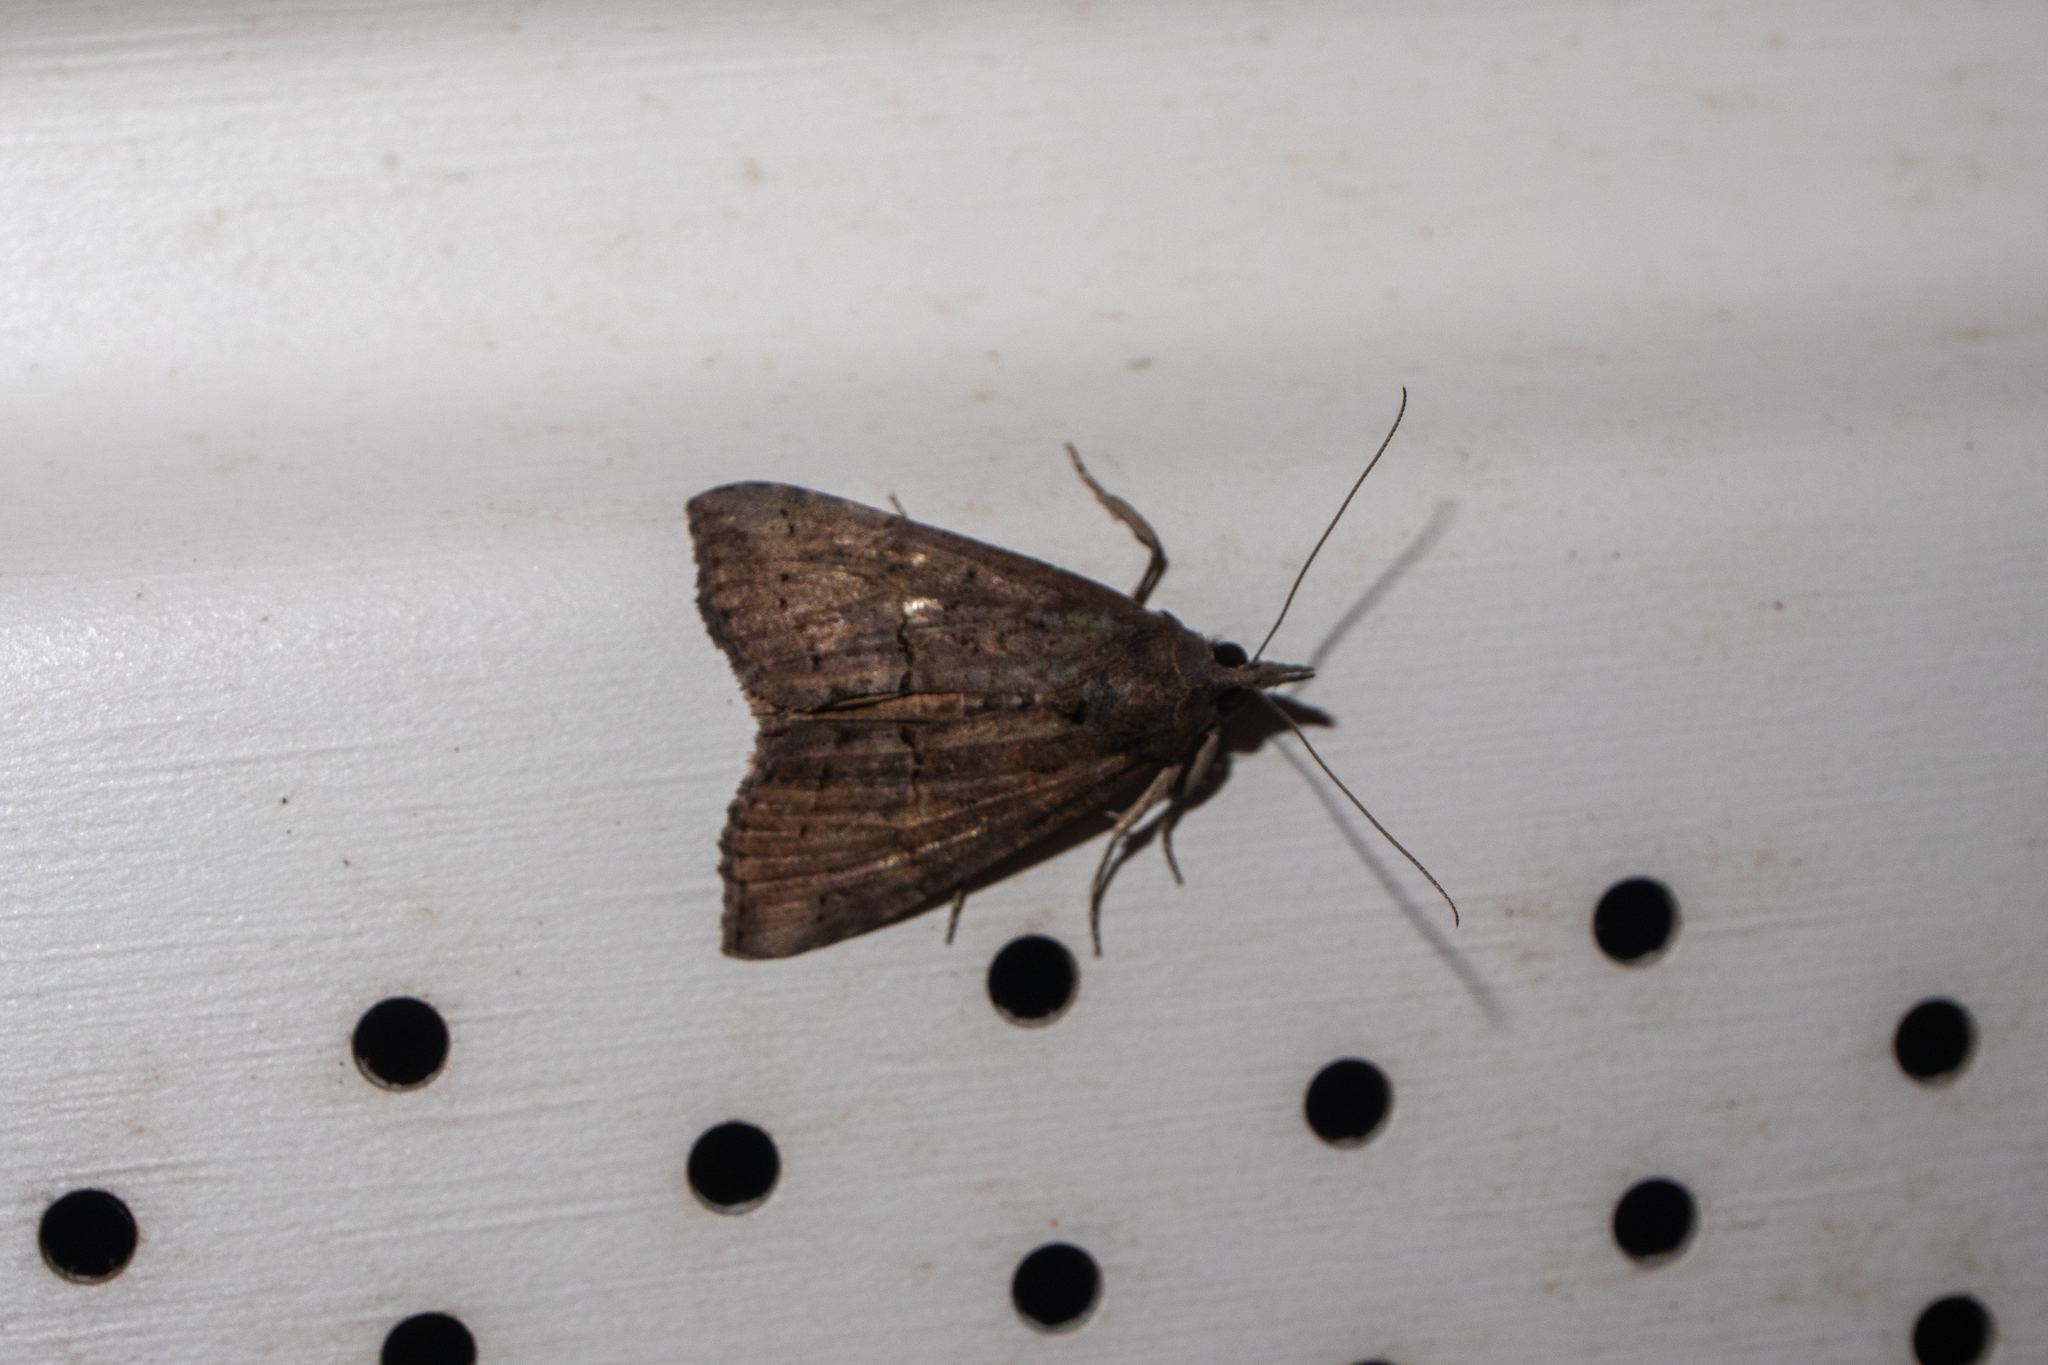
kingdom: Animalia
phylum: Arthropoda
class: Insecta
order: Lepidoptera
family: Erebidae
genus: Hypena
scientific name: Hypena scabra
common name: Green cloverworm
